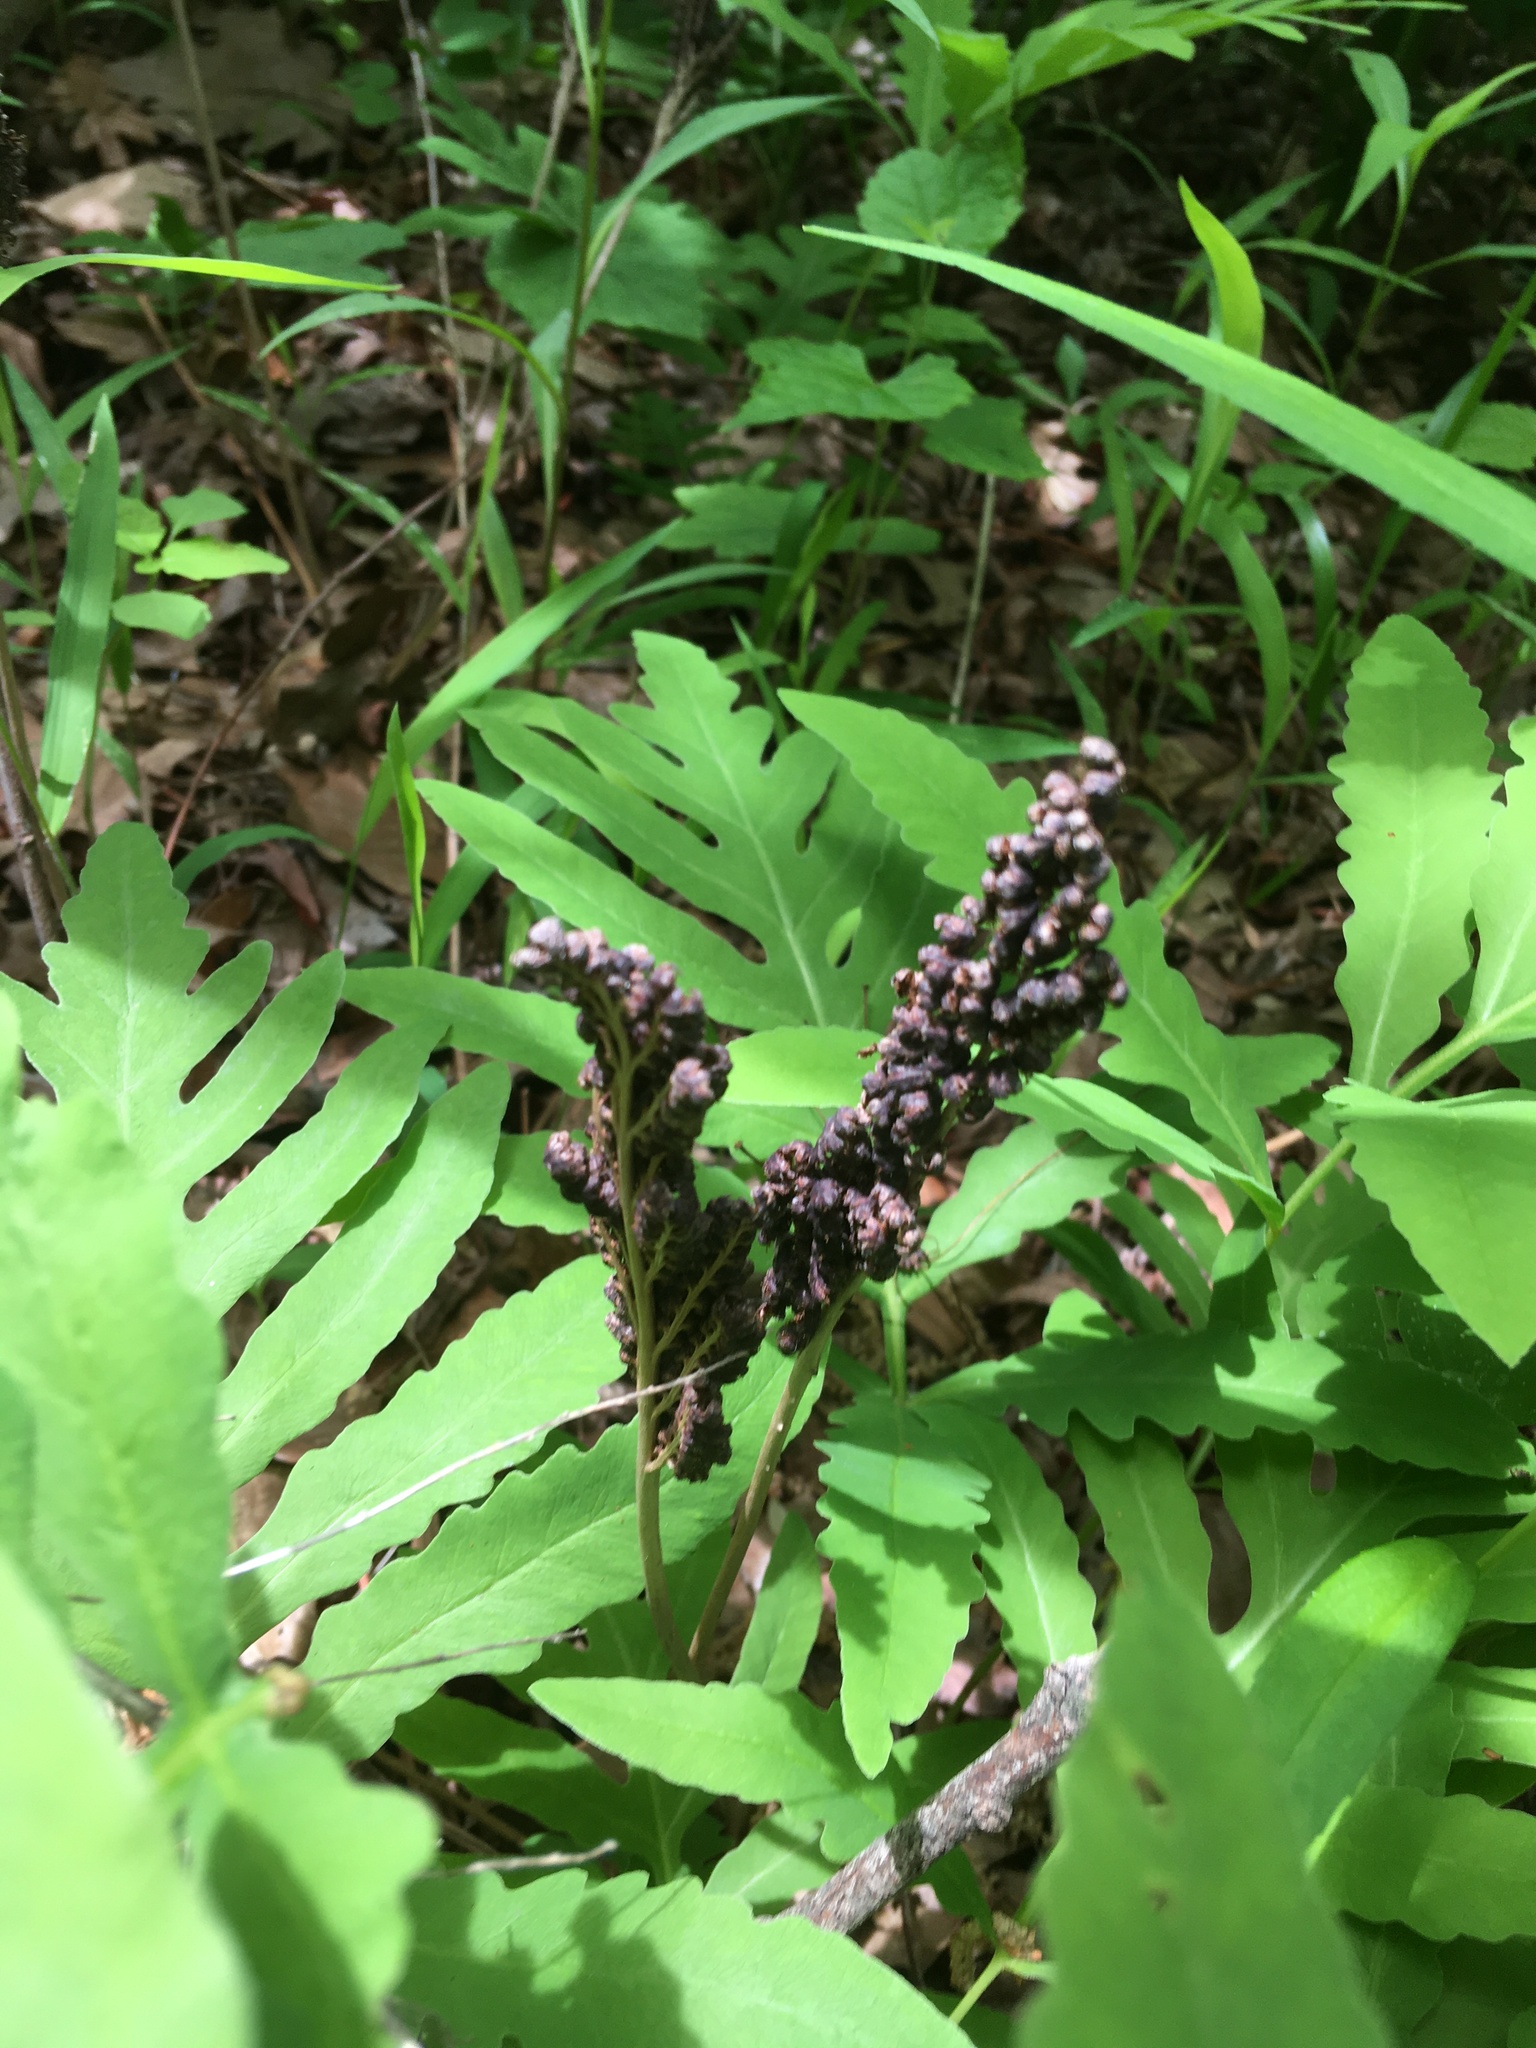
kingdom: Plantae
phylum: Tracheophyta
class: Polypodiopsida
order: Polypodiales
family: Onocleaceae
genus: Onoclea
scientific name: Onoclea sensibilis
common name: Sensitive fern
